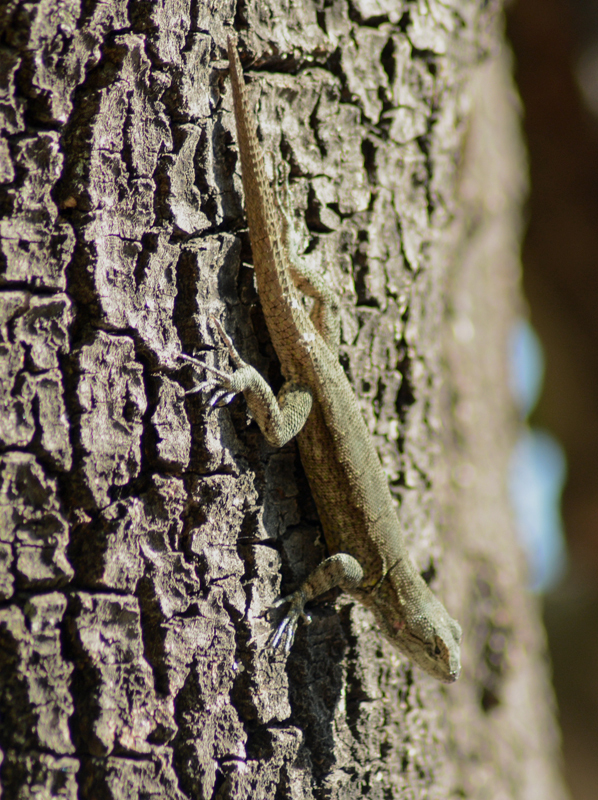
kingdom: Animalia
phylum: Chordata
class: Squamata
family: Phrynosomatidae
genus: Sceloporus
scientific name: Sceloporus grammicus
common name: Mesquite lizard
